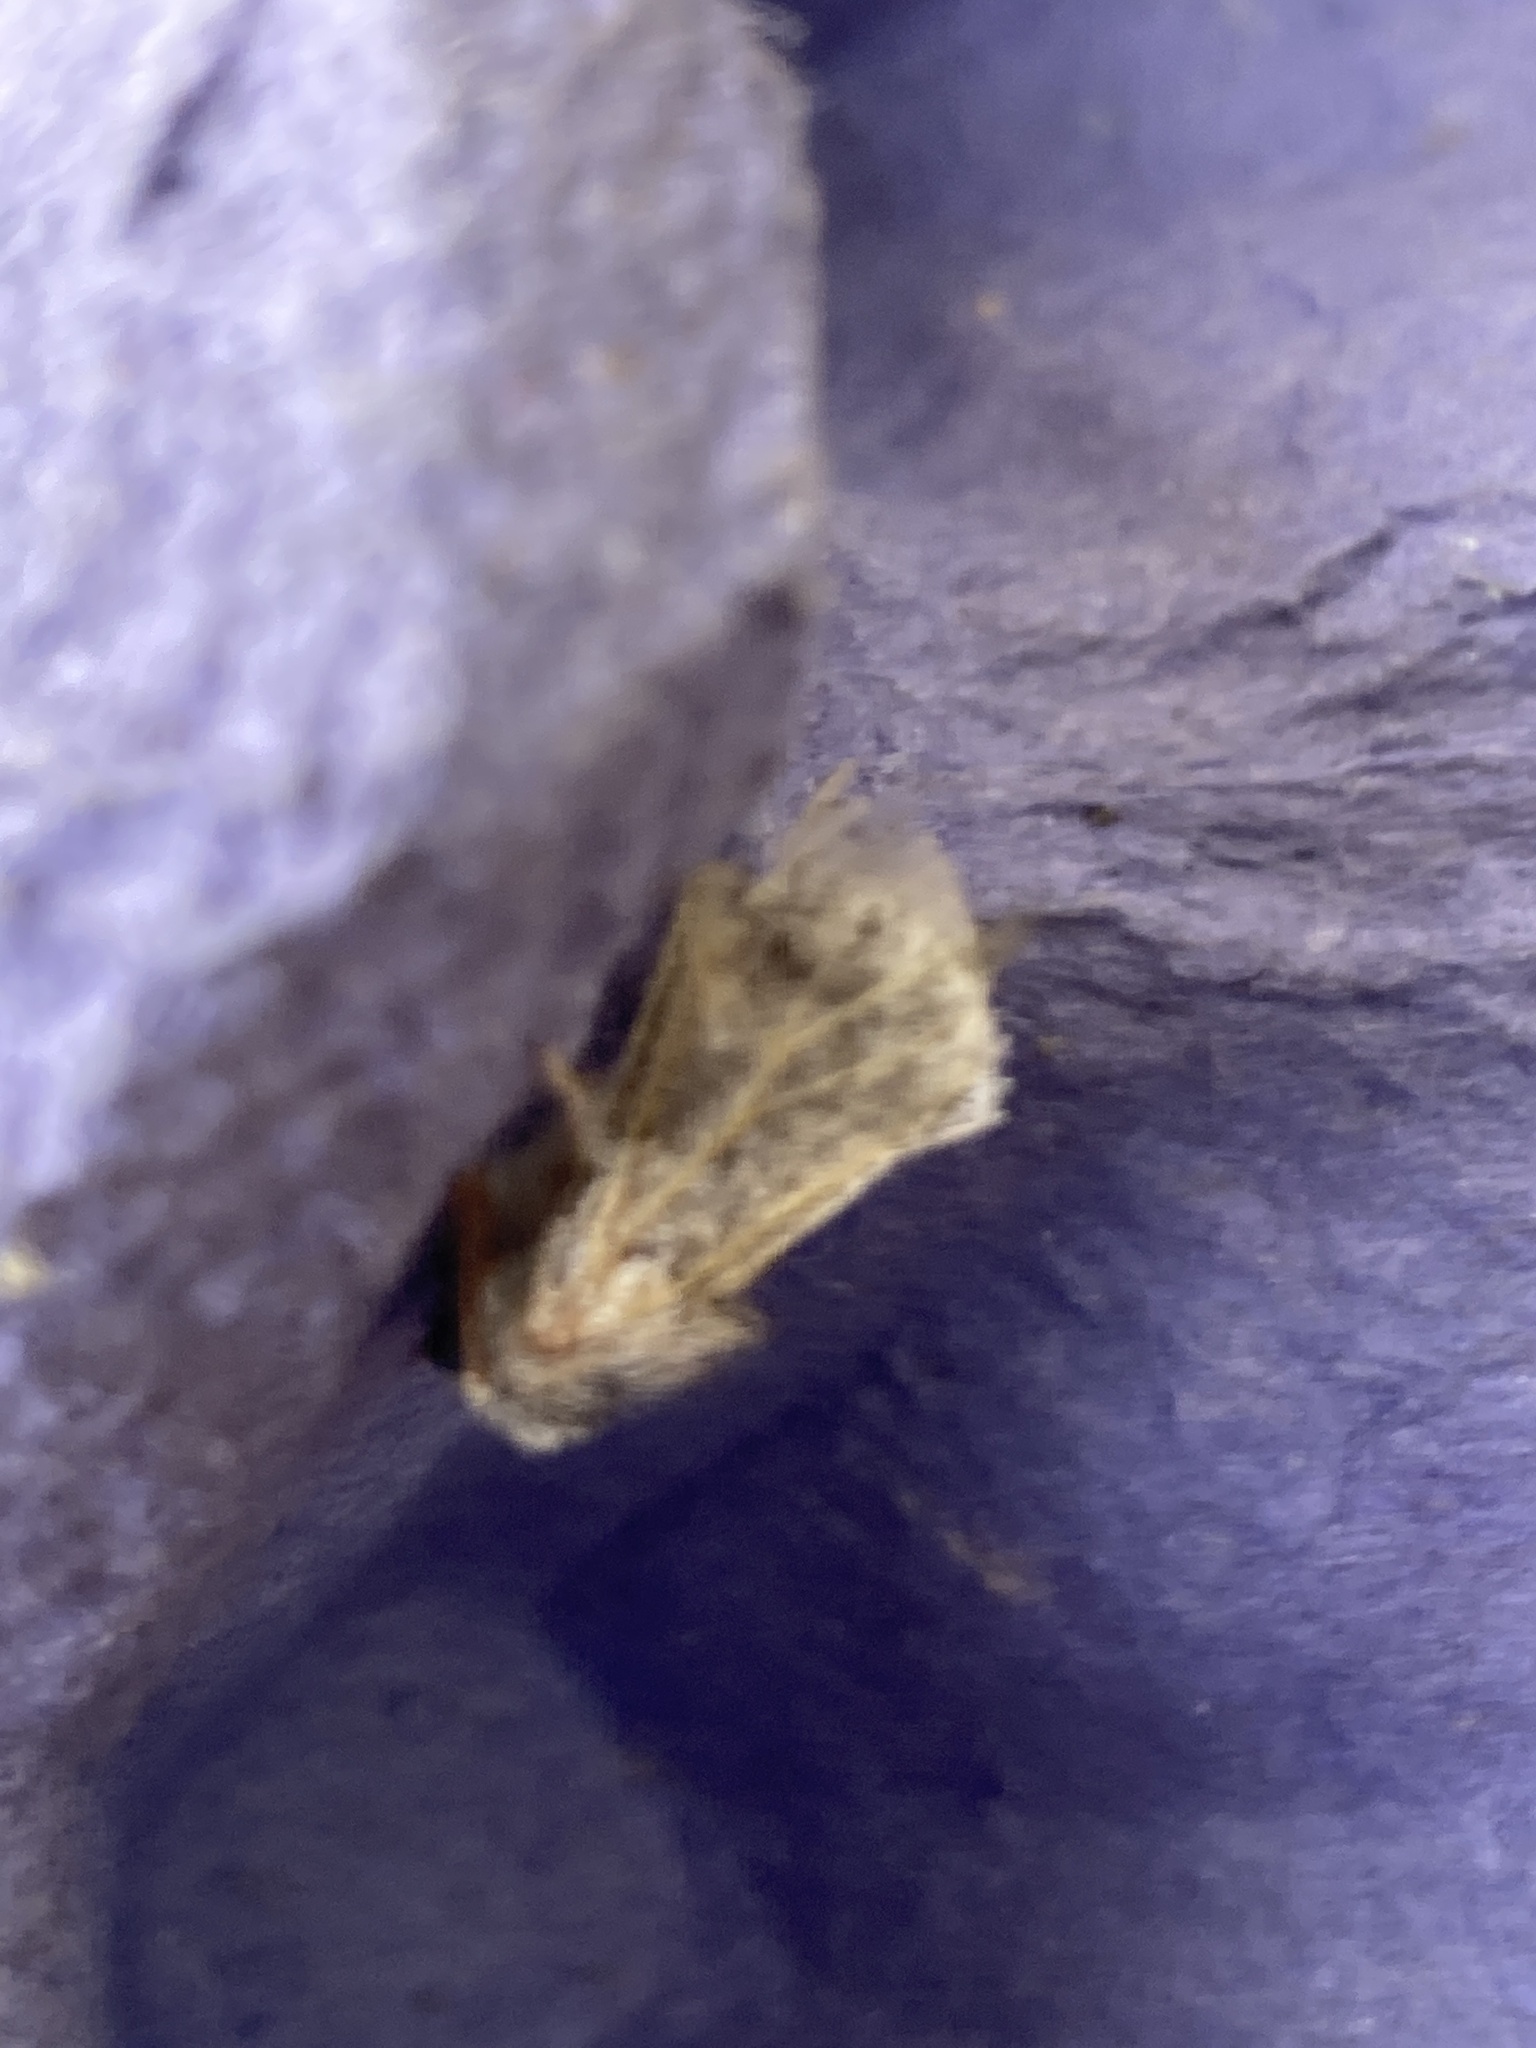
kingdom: Animalia
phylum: Arthropoda
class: Insecta
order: Lepidoptera
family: Notodontidae
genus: Thaumetopoea
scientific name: Thaumetopoea processionea
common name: Oak processionea
